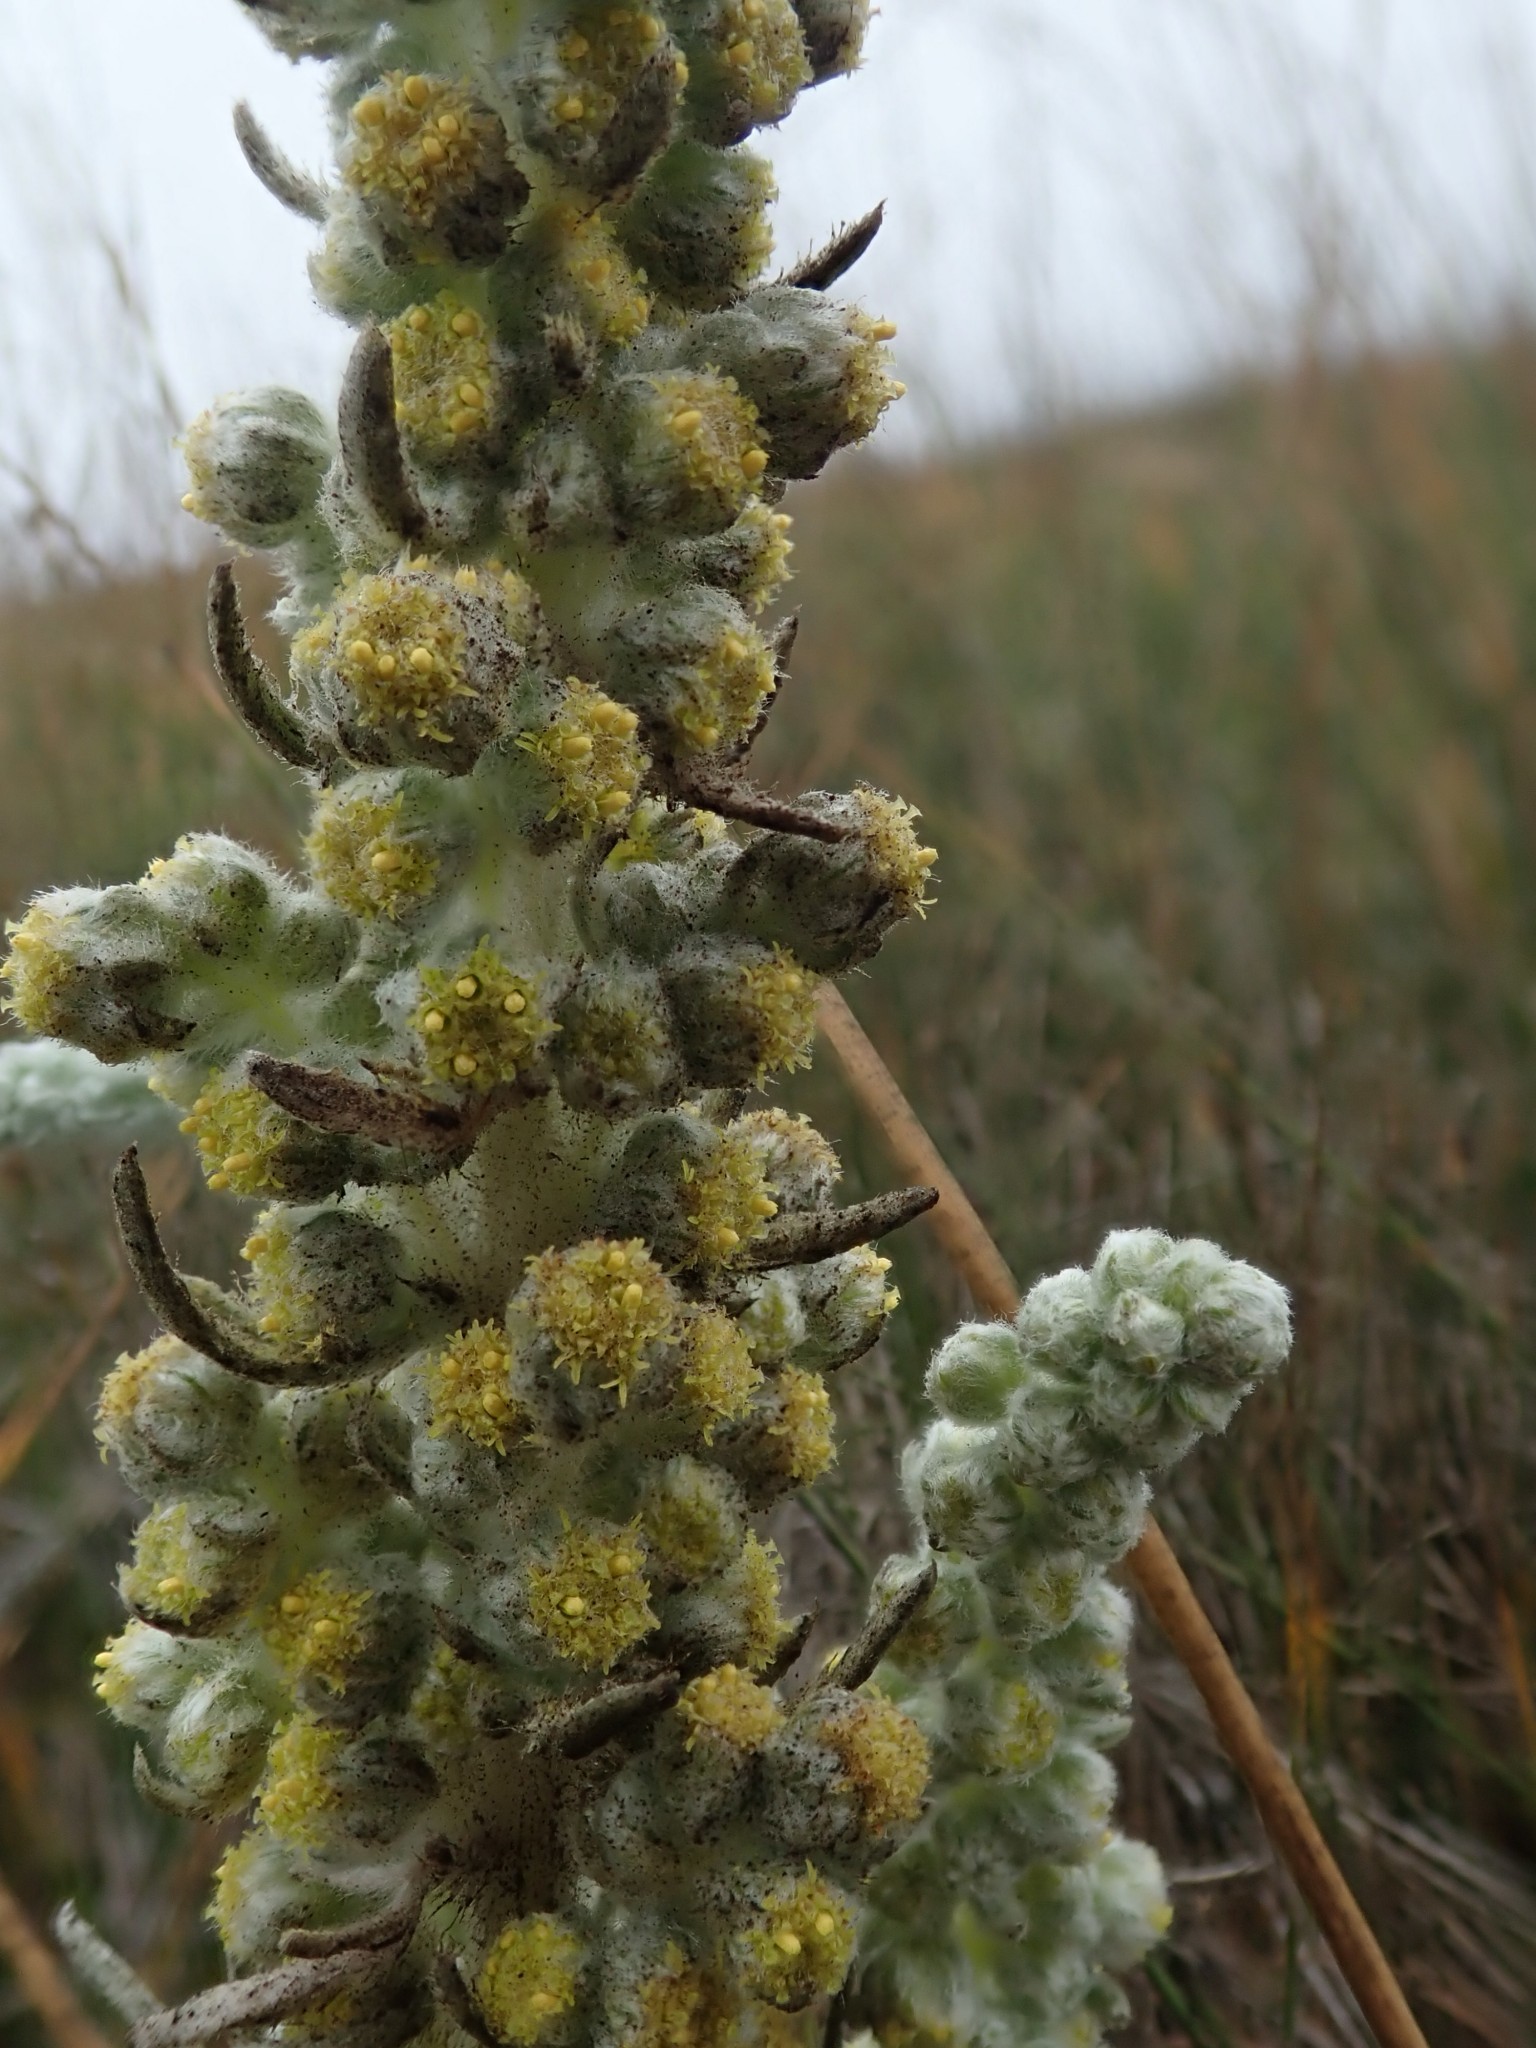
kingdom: Plantae
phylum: Tracheophyta
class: Magnoliopsida
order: Asterales
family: Asteraceae
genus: Artemisia
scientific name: Artemisia pycnocephala
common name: Coastal sagewort
